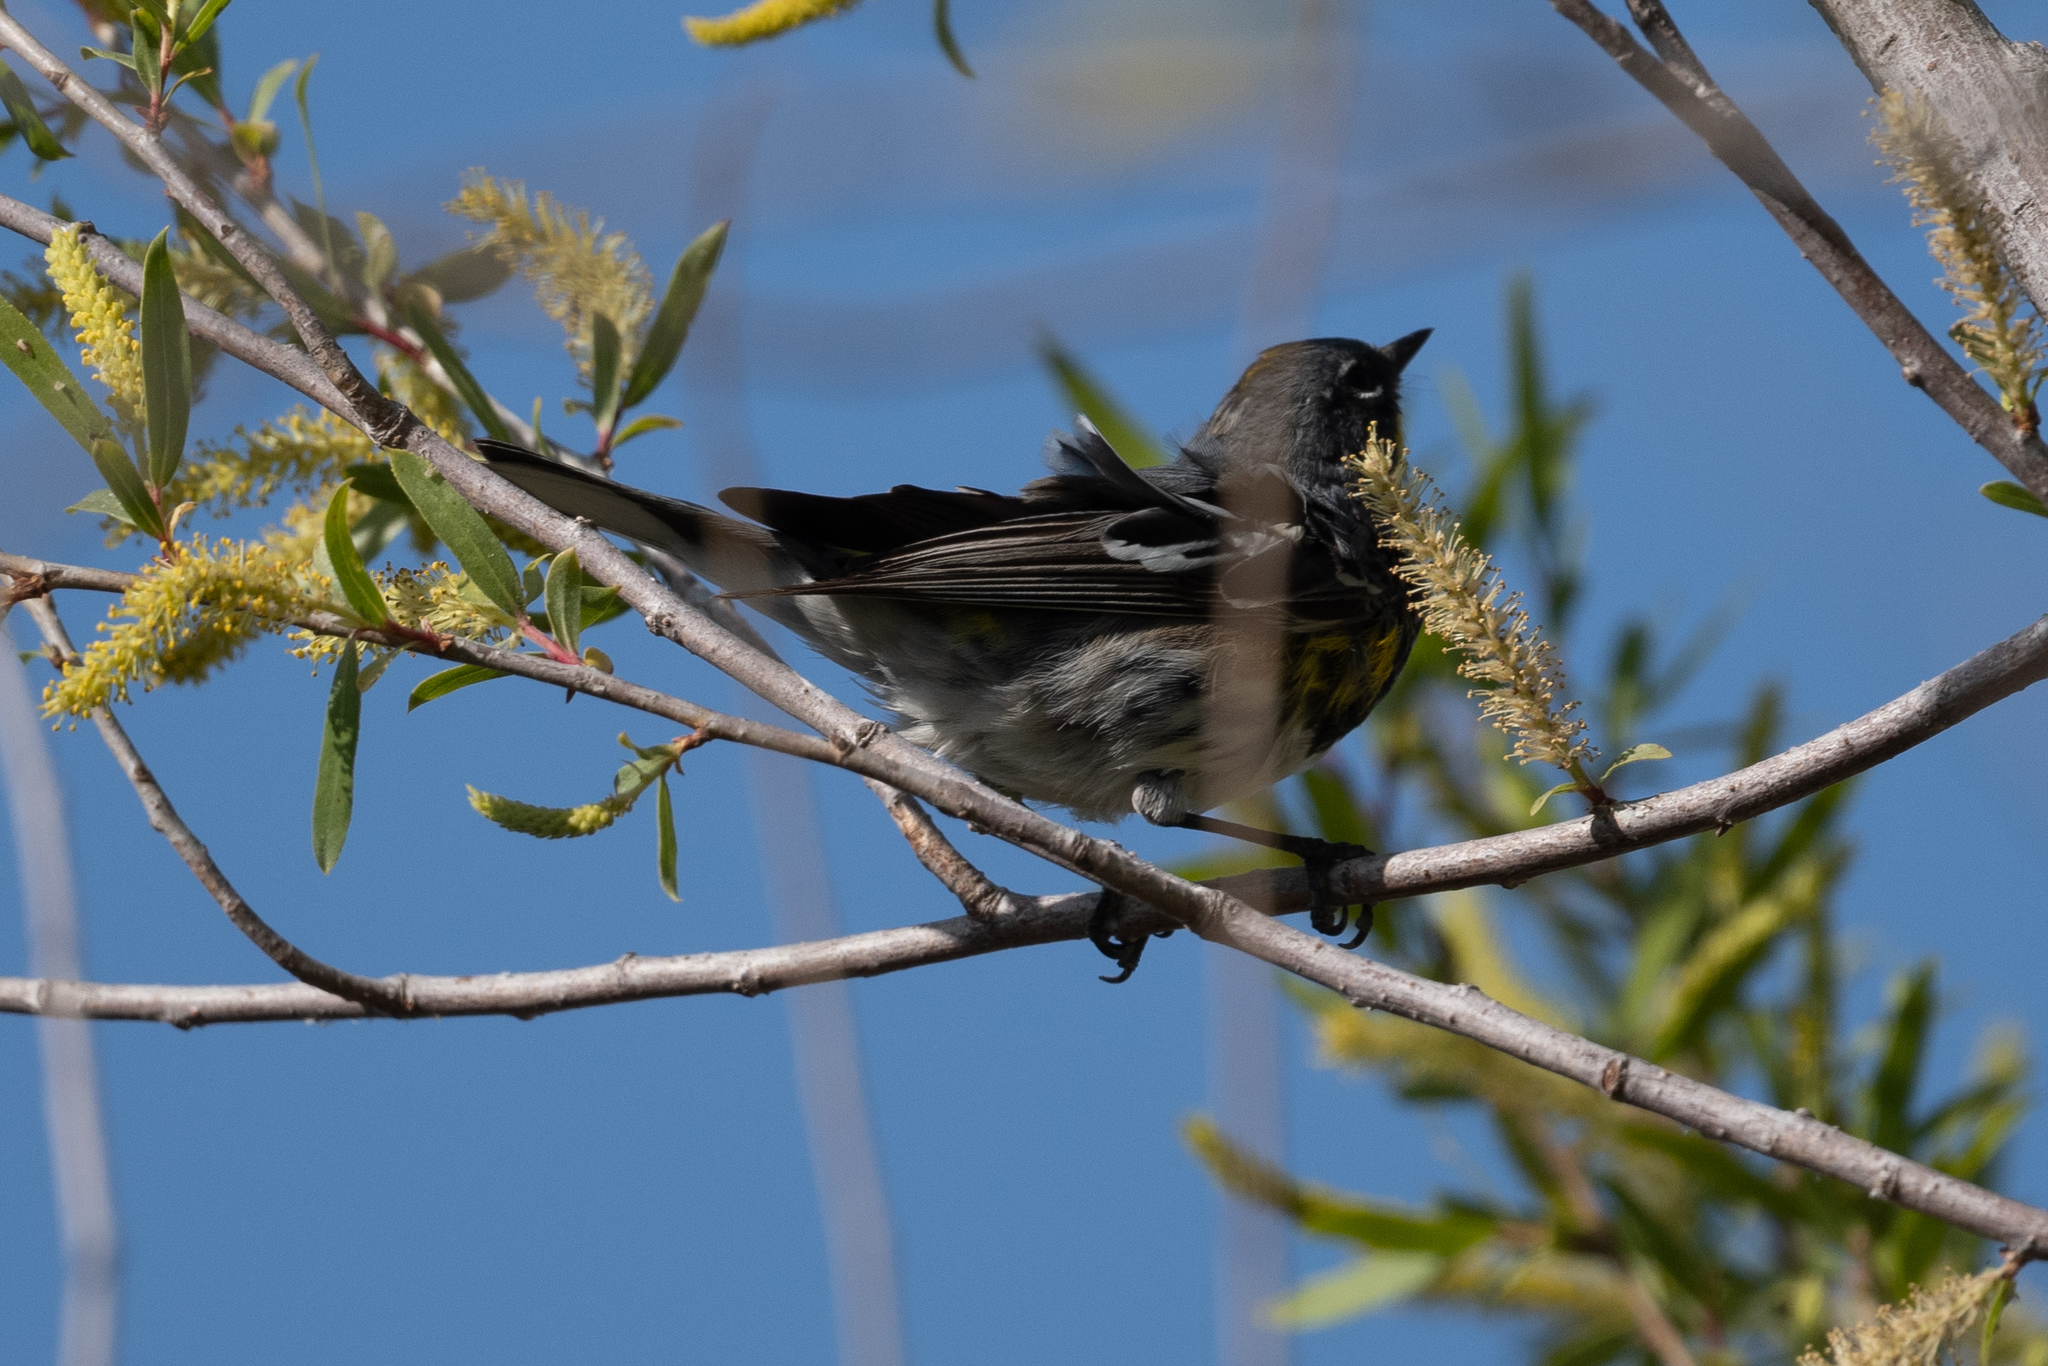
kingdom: Animalia
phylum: Chordata
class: Aves
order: Passeriformes
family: Parulidae
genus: Setophaga
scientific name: Setophaga coronata
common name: Myrtle warbler
